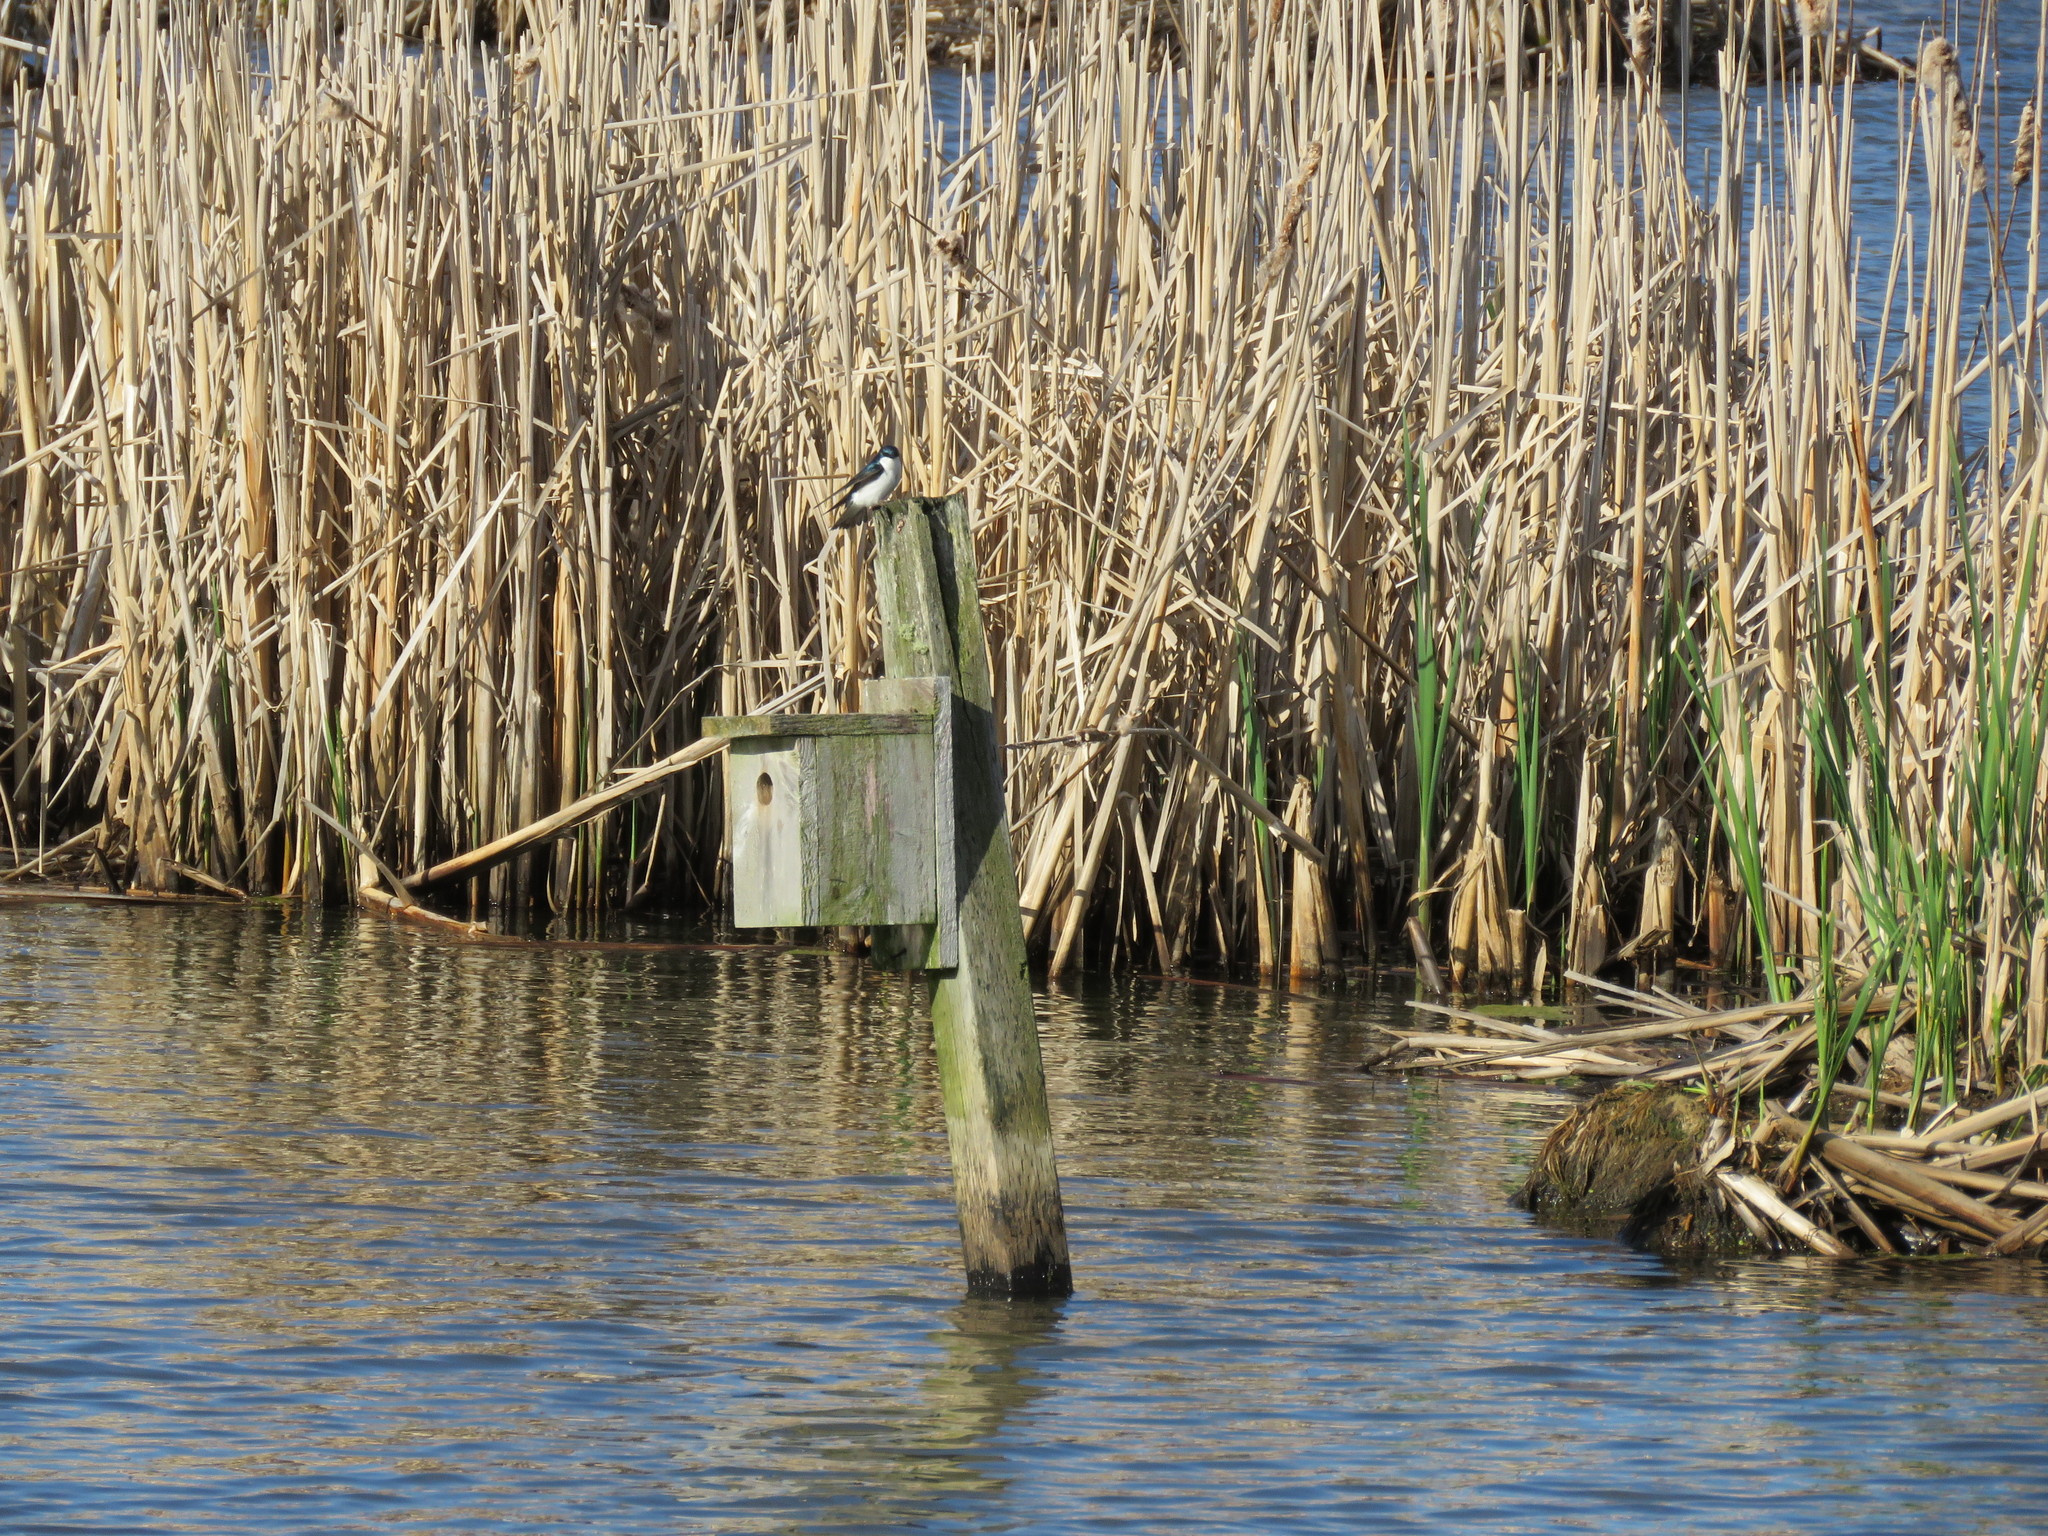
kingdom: Animalia
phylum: Chordata
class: Aves
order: Passeriformes
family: Hirundinidae
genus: Tachycineta
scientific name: Tachycineta bicolor
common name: Tree swallow
